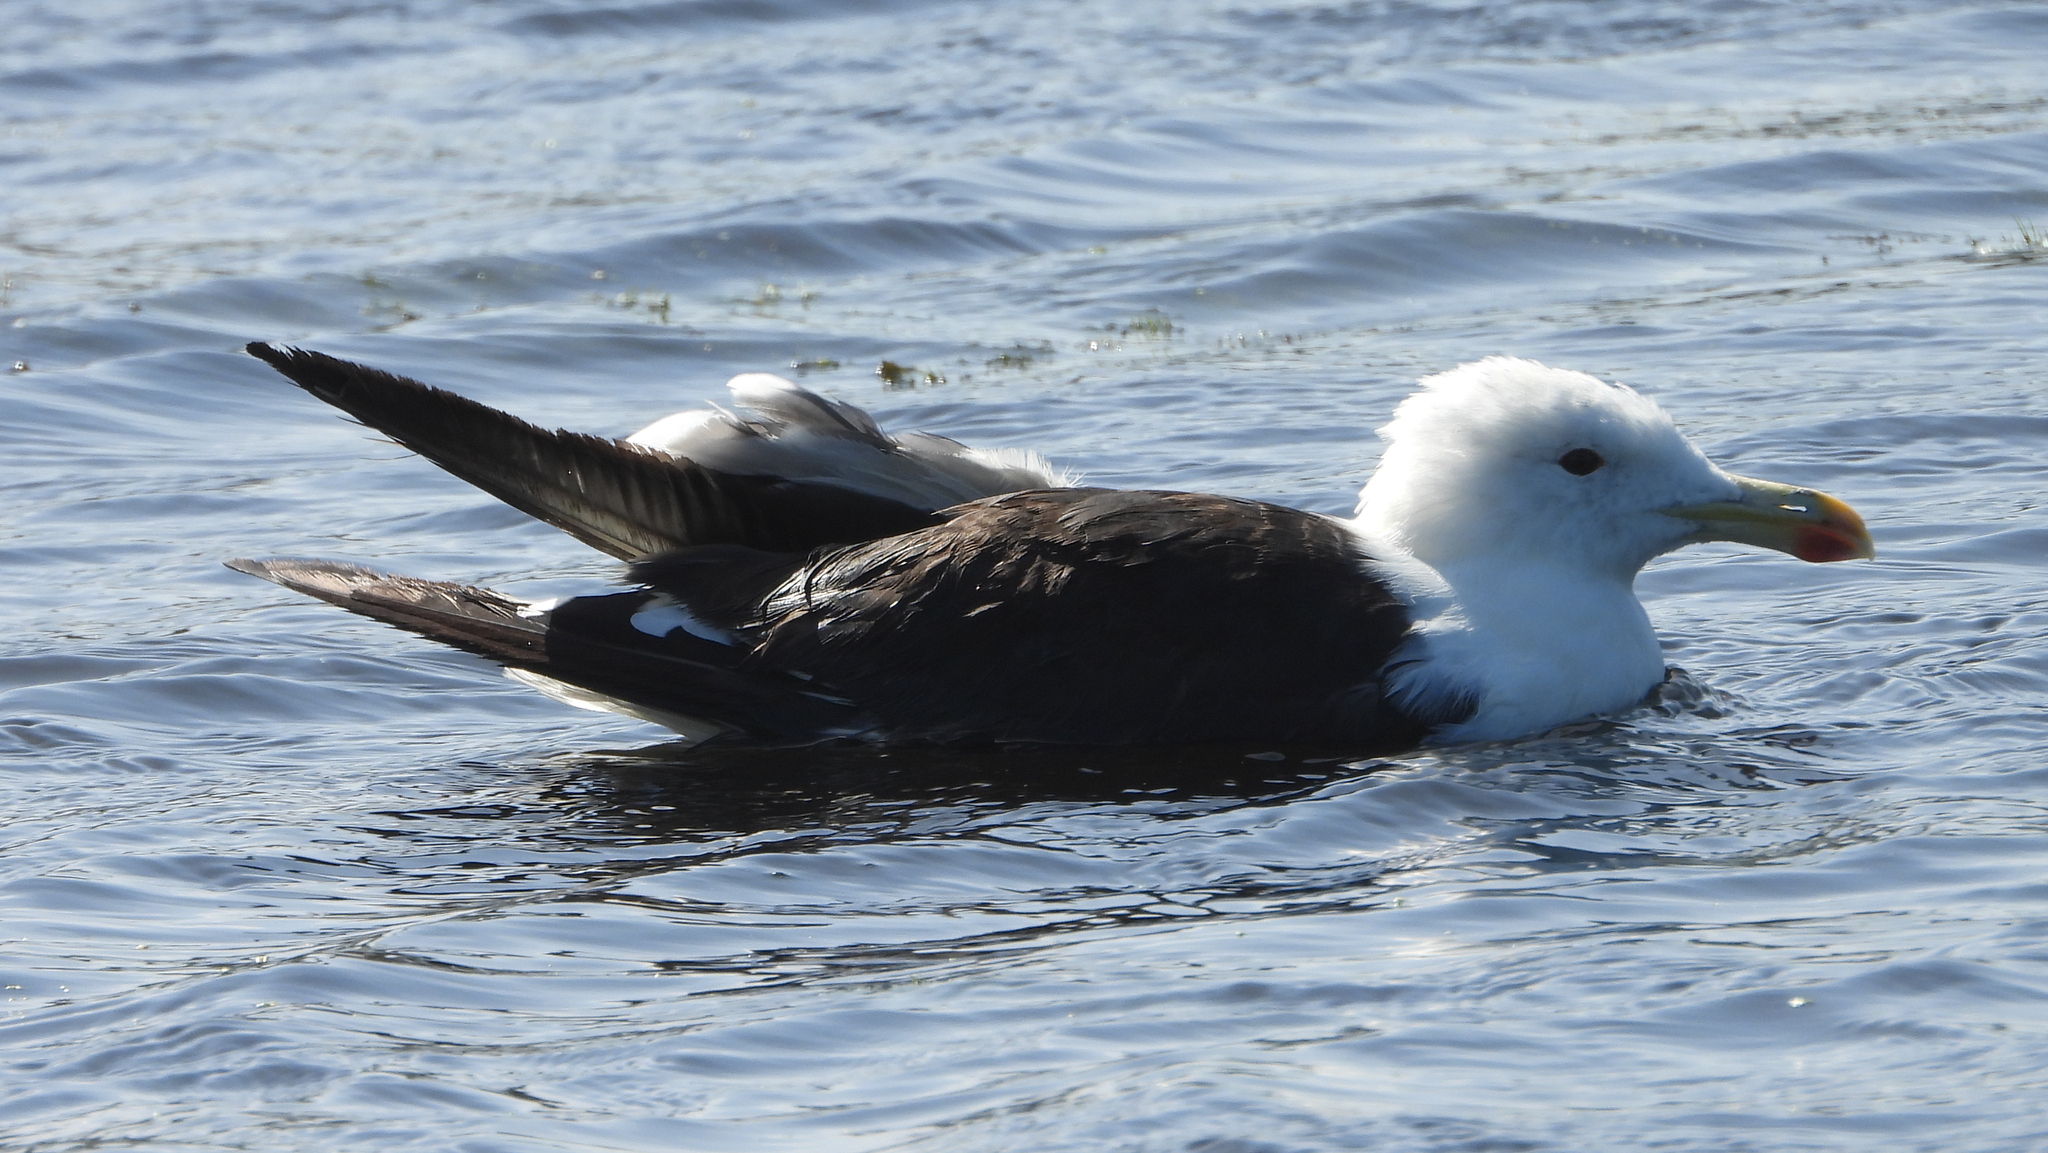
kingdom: Animalia
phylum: Chordata
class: Aves
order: Charadriiformes
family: Laridae
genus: Larus
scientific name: Larus dominicanus
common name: Kelp gull
